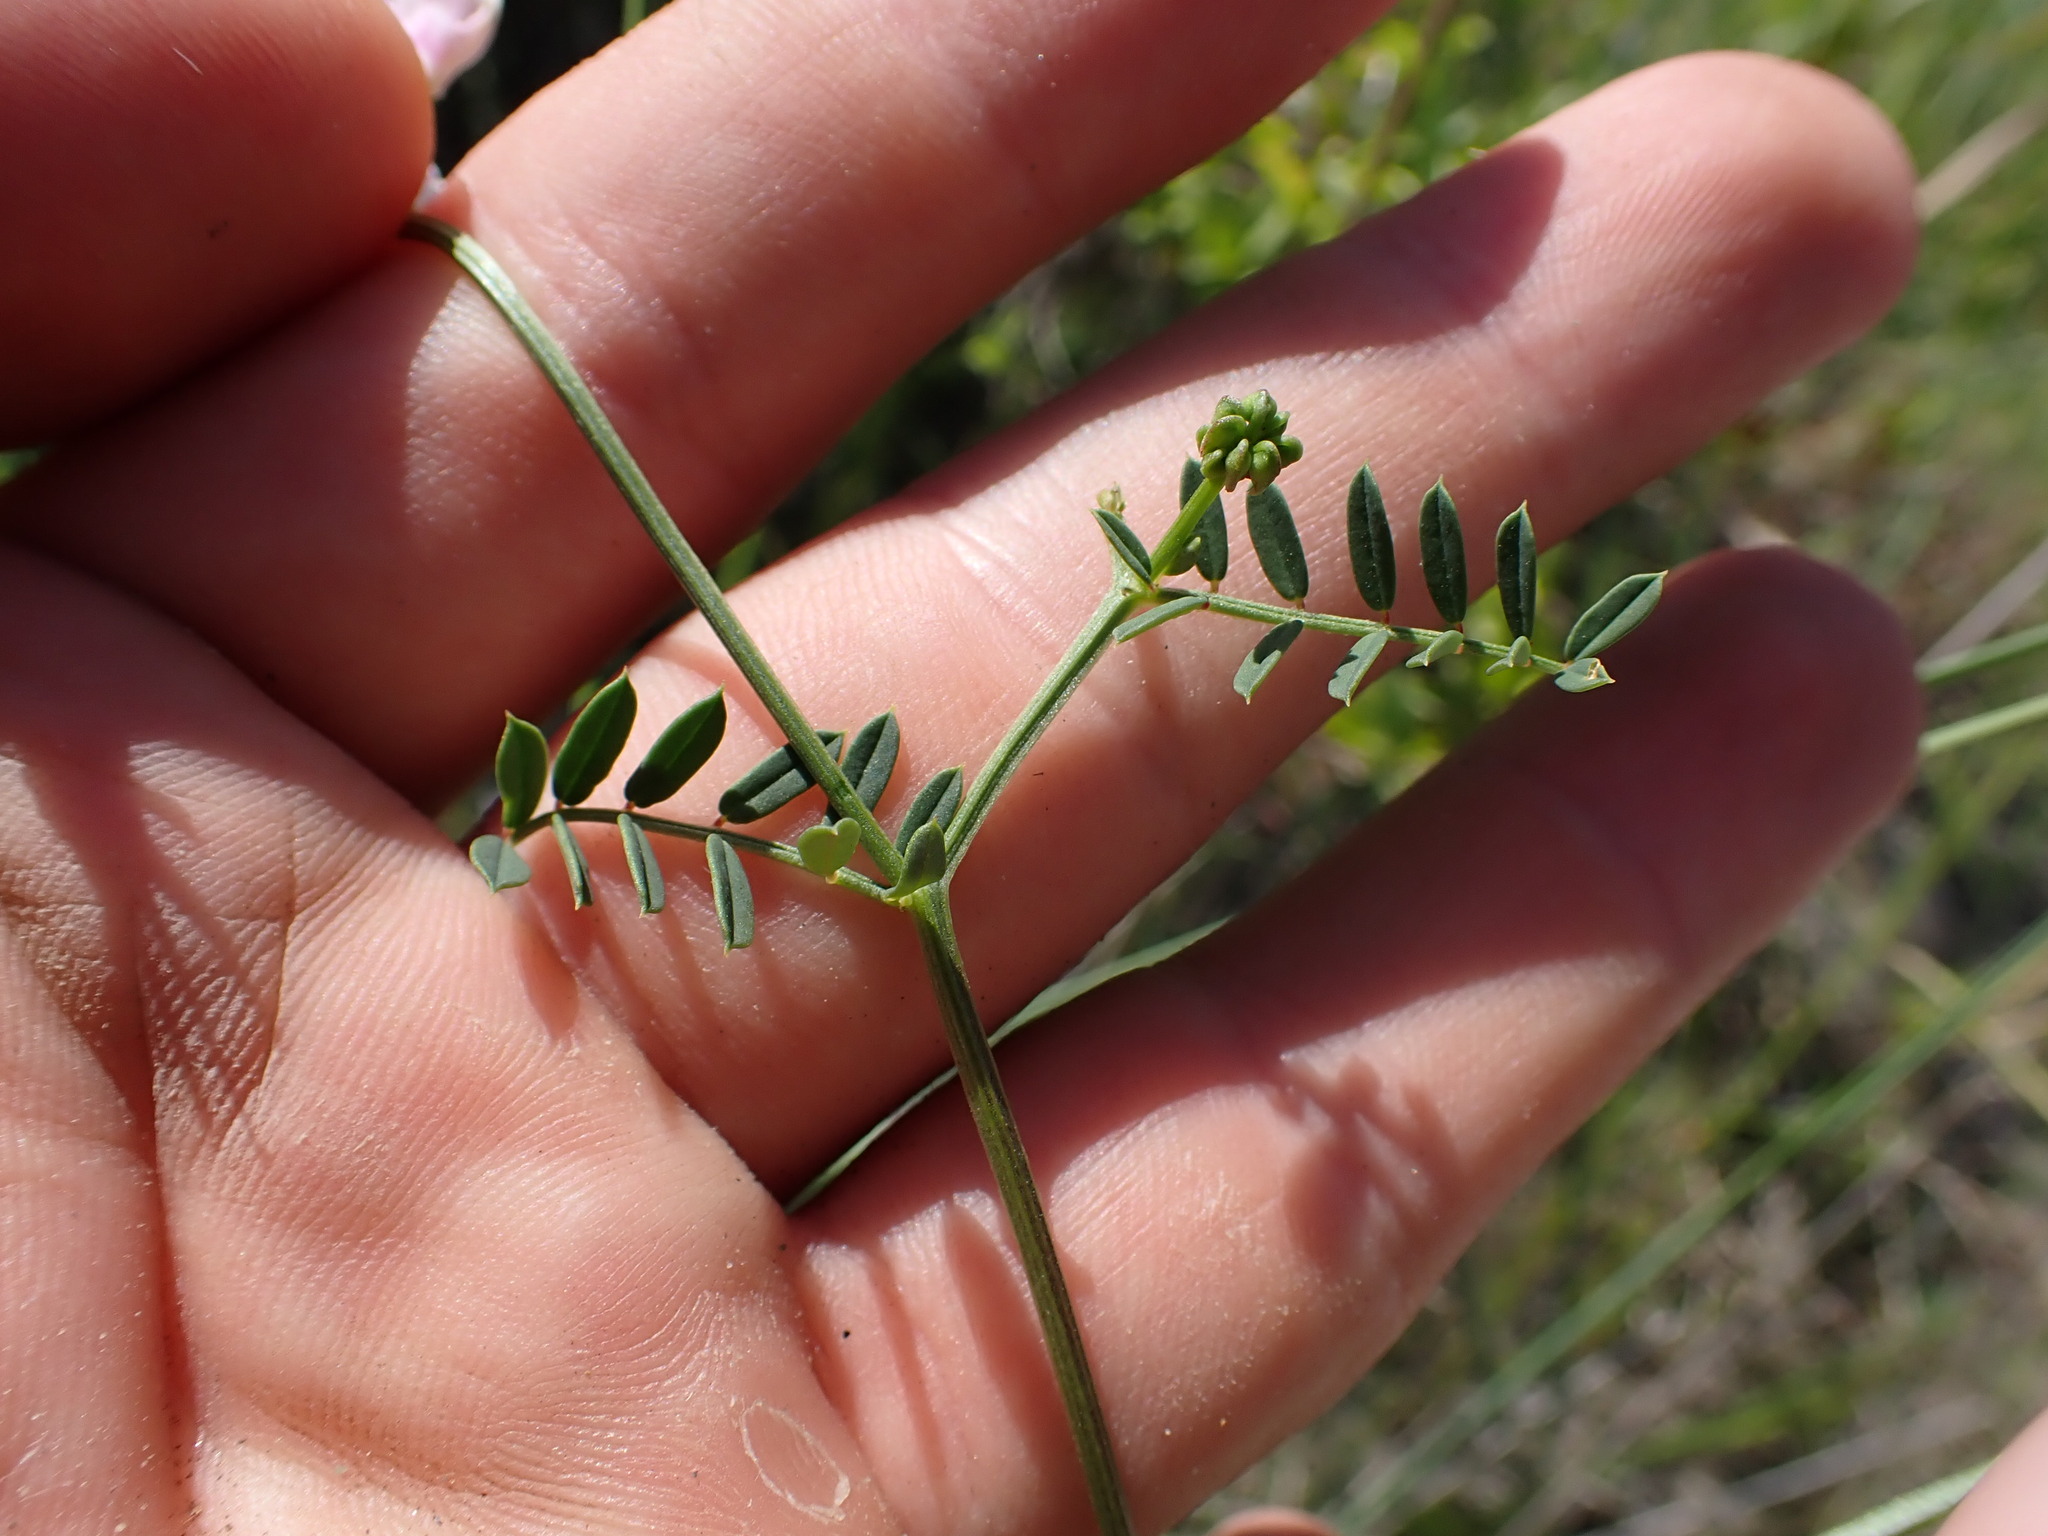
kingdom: Plantae
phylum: Tracheophyta
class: Magnoliopsida
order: Fabales
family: Fabaceae
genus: Coronilla
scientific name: Coronilla varia
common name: Crownvetch
